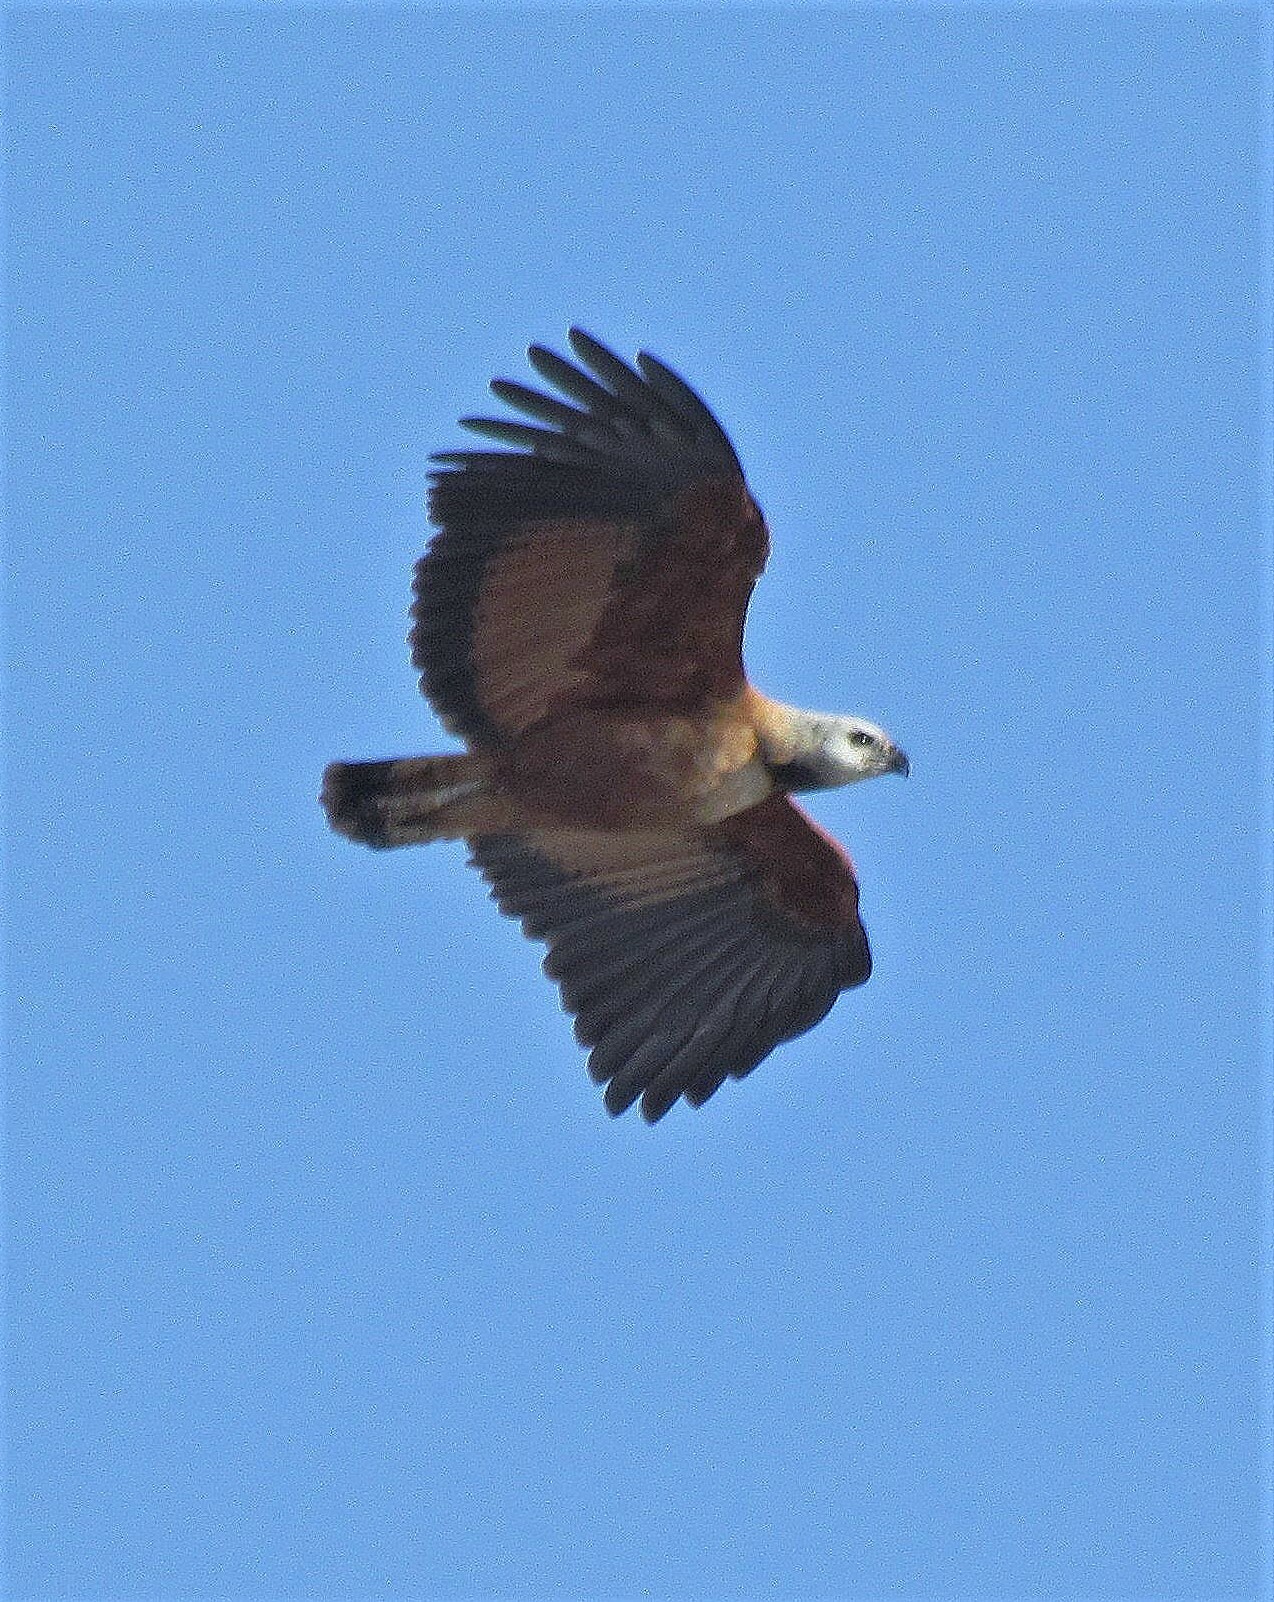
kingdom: Animalia
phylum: Chordata
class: Aves
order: Accipitriformes
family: Accipitridae
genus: Busarellus
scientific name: Busarellus nigricollis
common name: Black-collared hawk
